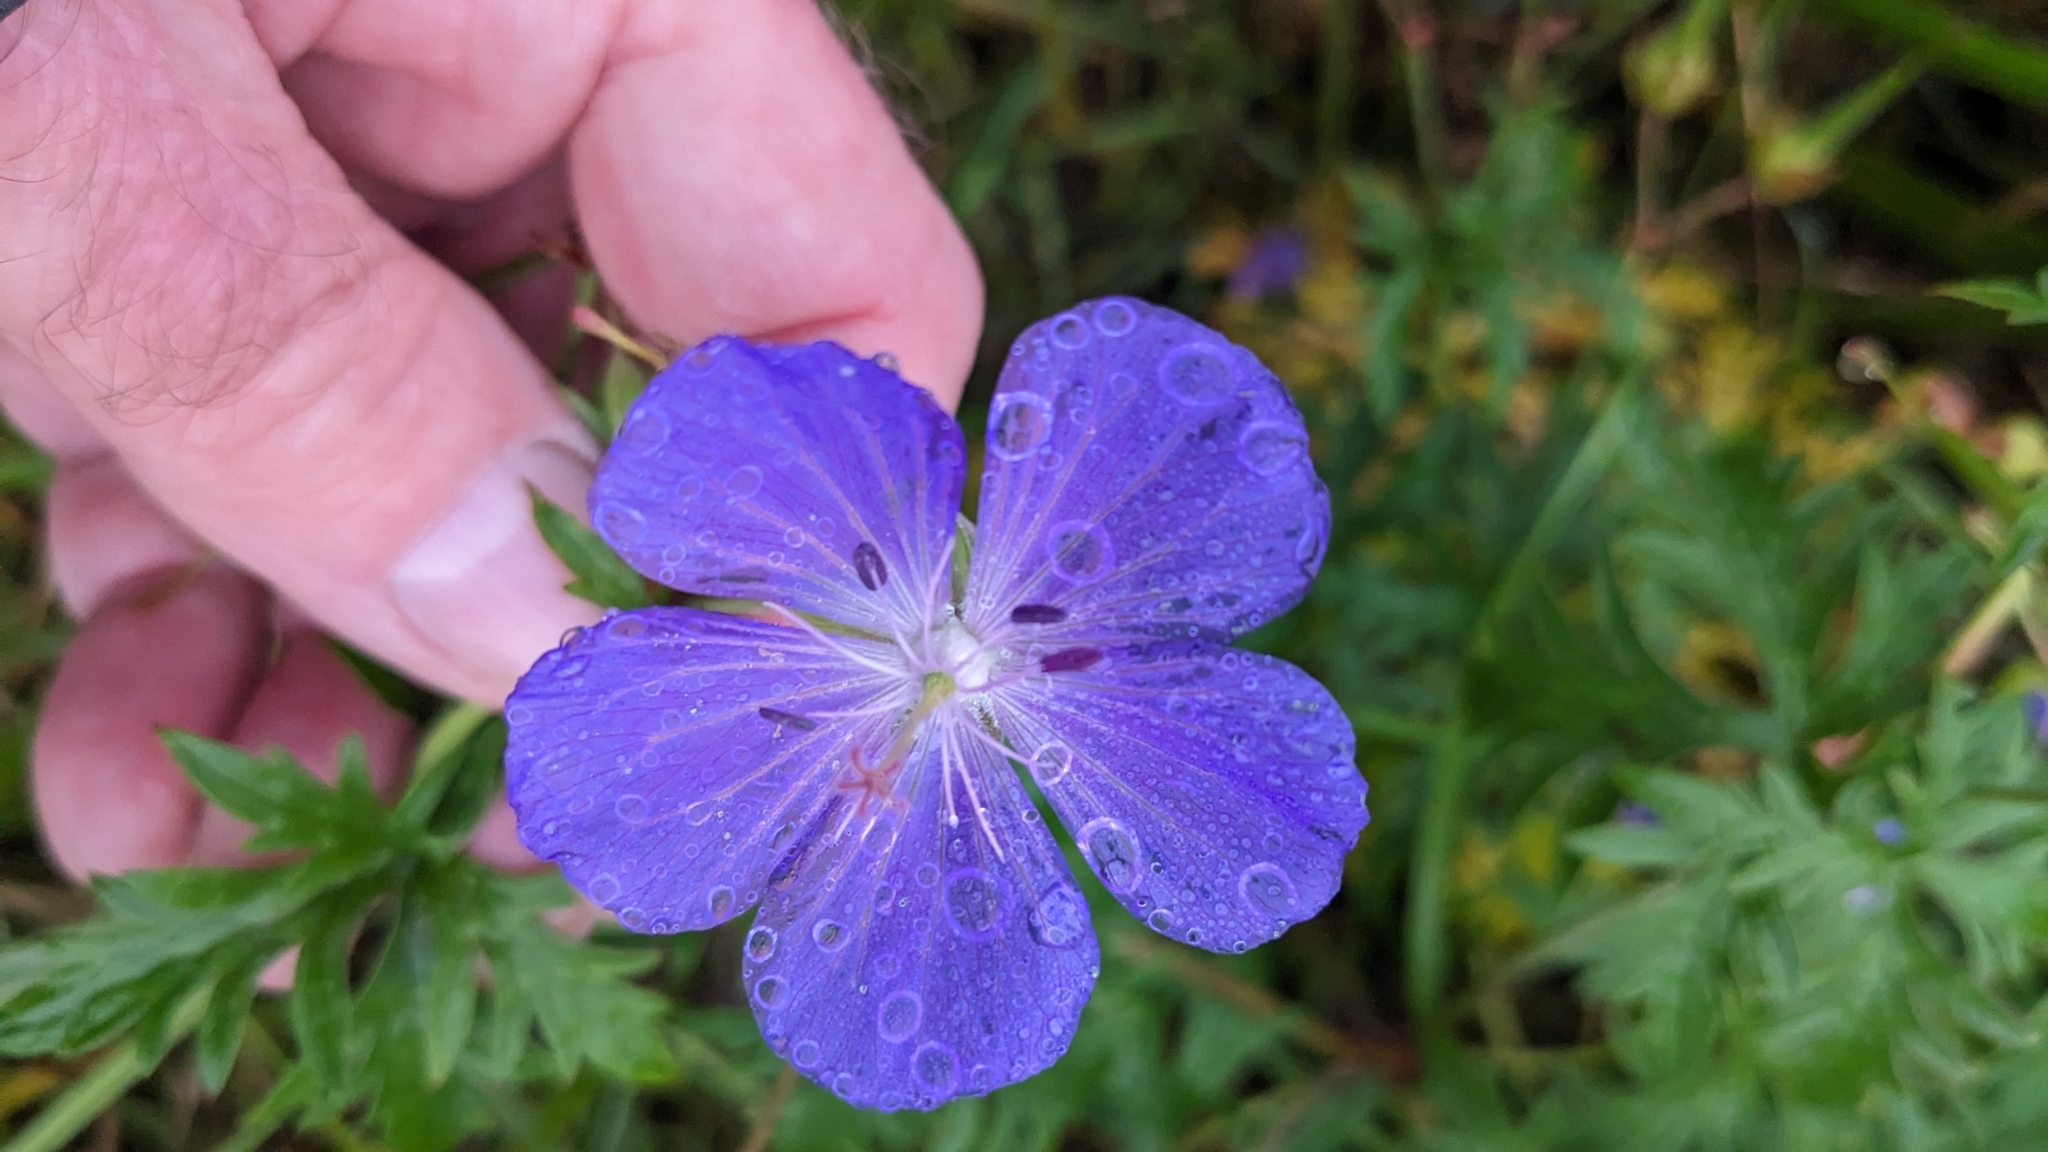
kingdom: Plantae
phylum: Tracheophyta
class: Magnoliopsida
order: Geraniales
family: Geraniaceae
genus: Geranium
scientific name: Geranium pratense
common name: Meadow crane's-bill
